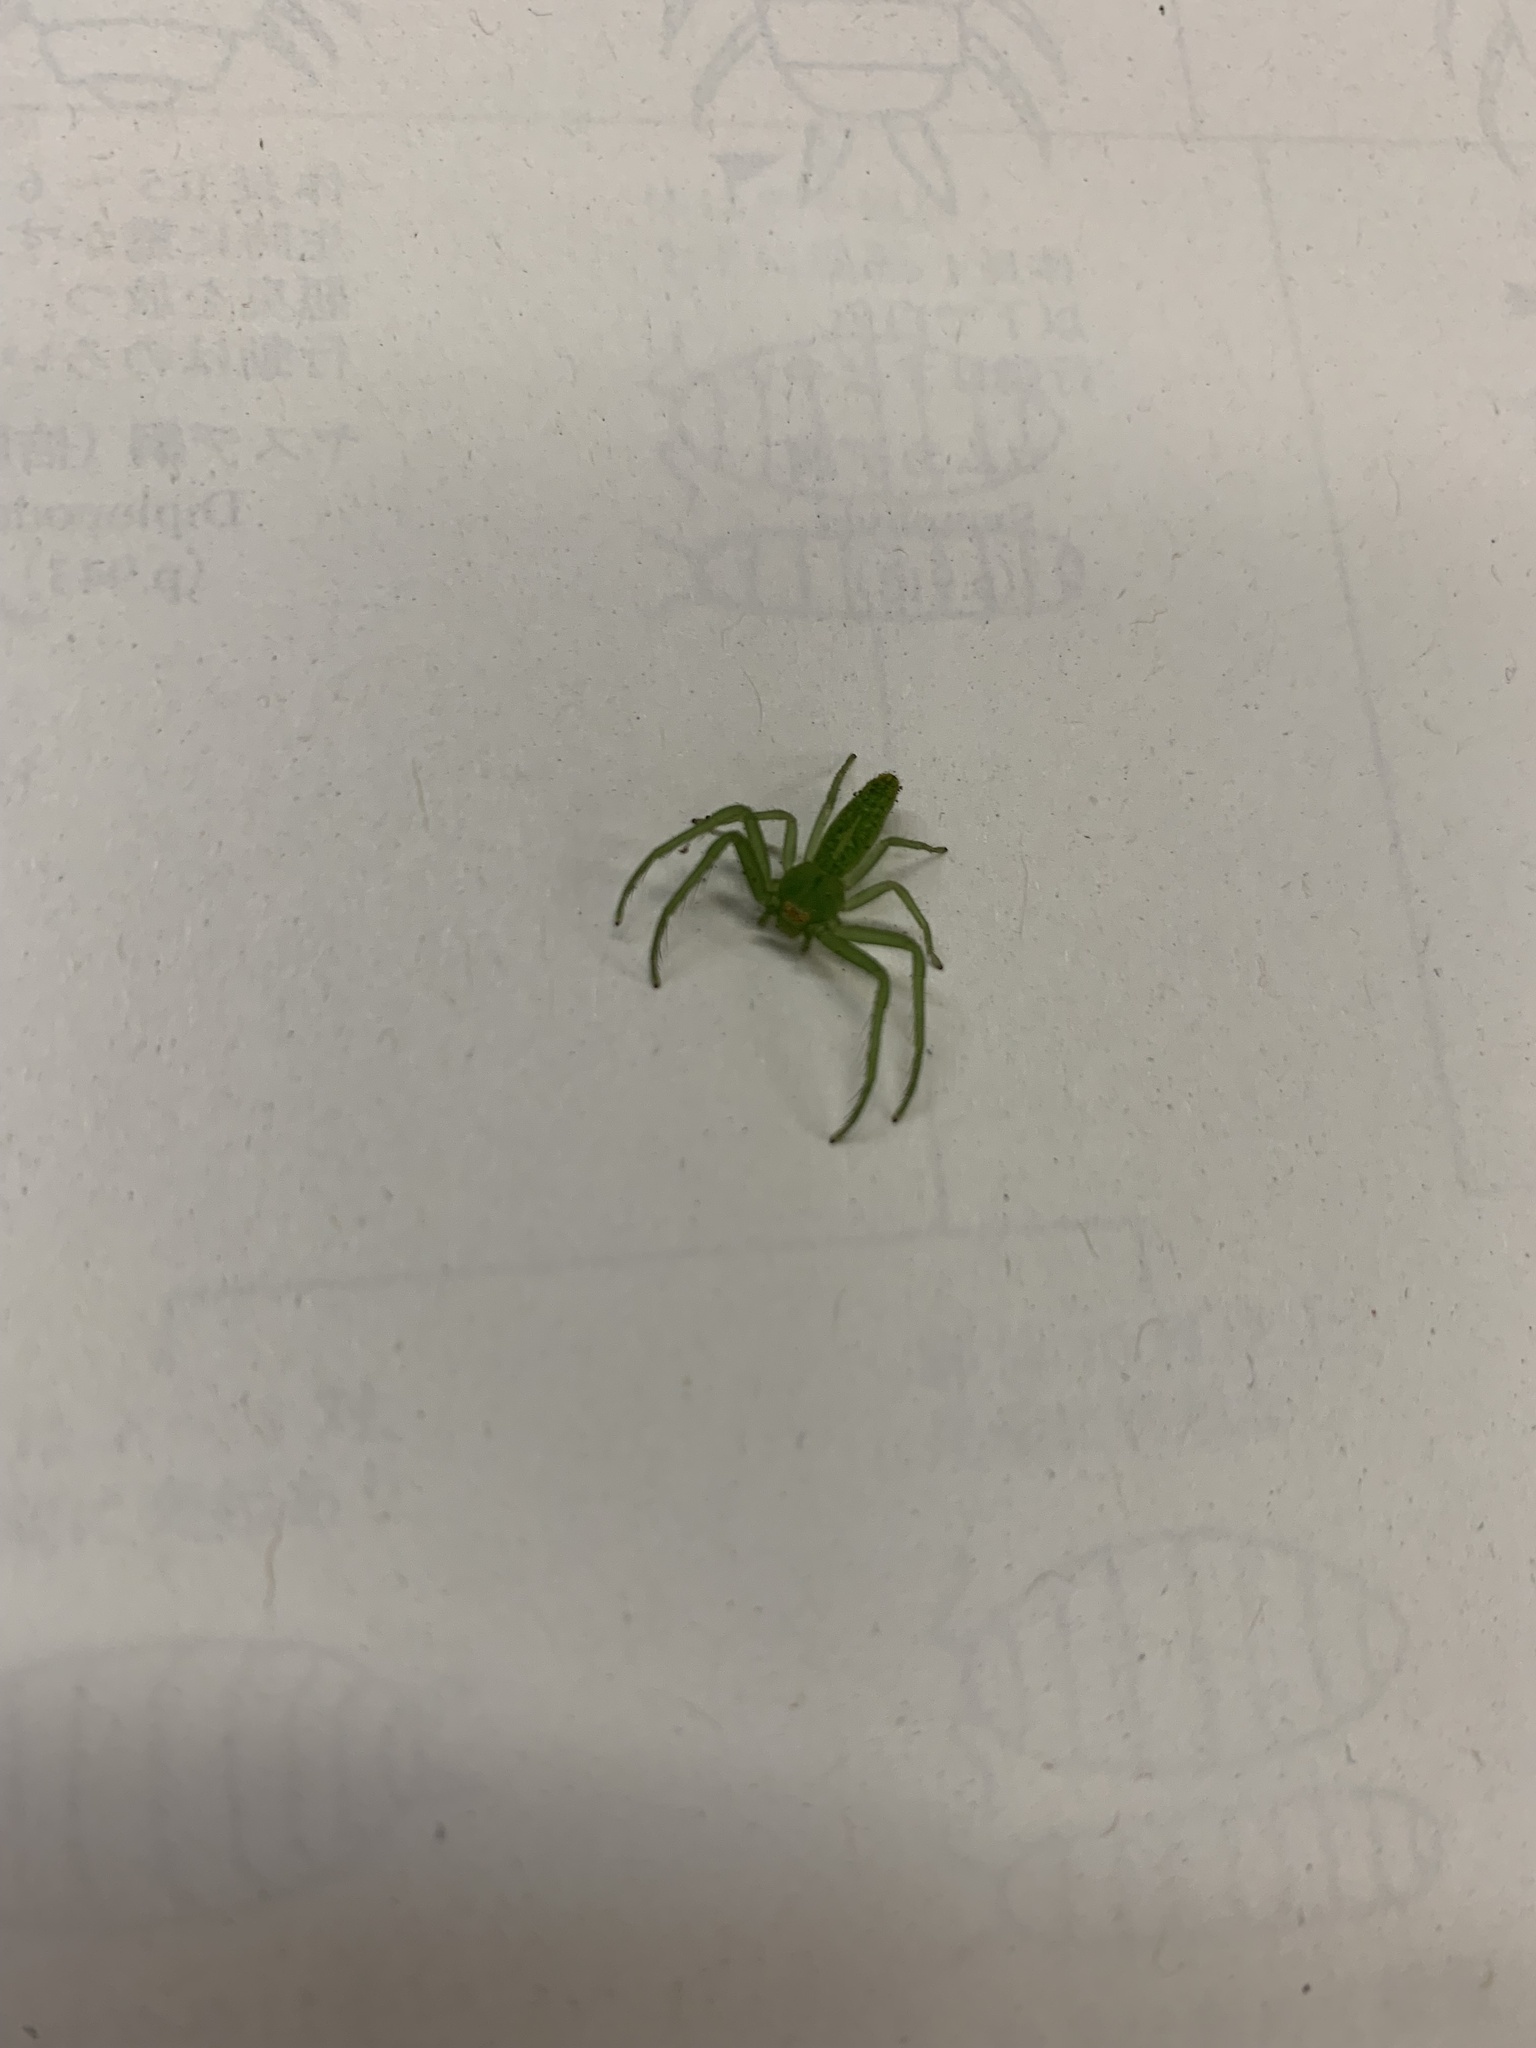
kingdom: Animalia
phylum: Arthropoda
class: Arachnida
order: Araneae
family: Thomisidae
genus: Oxytate
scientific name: Oxytate striatipes
